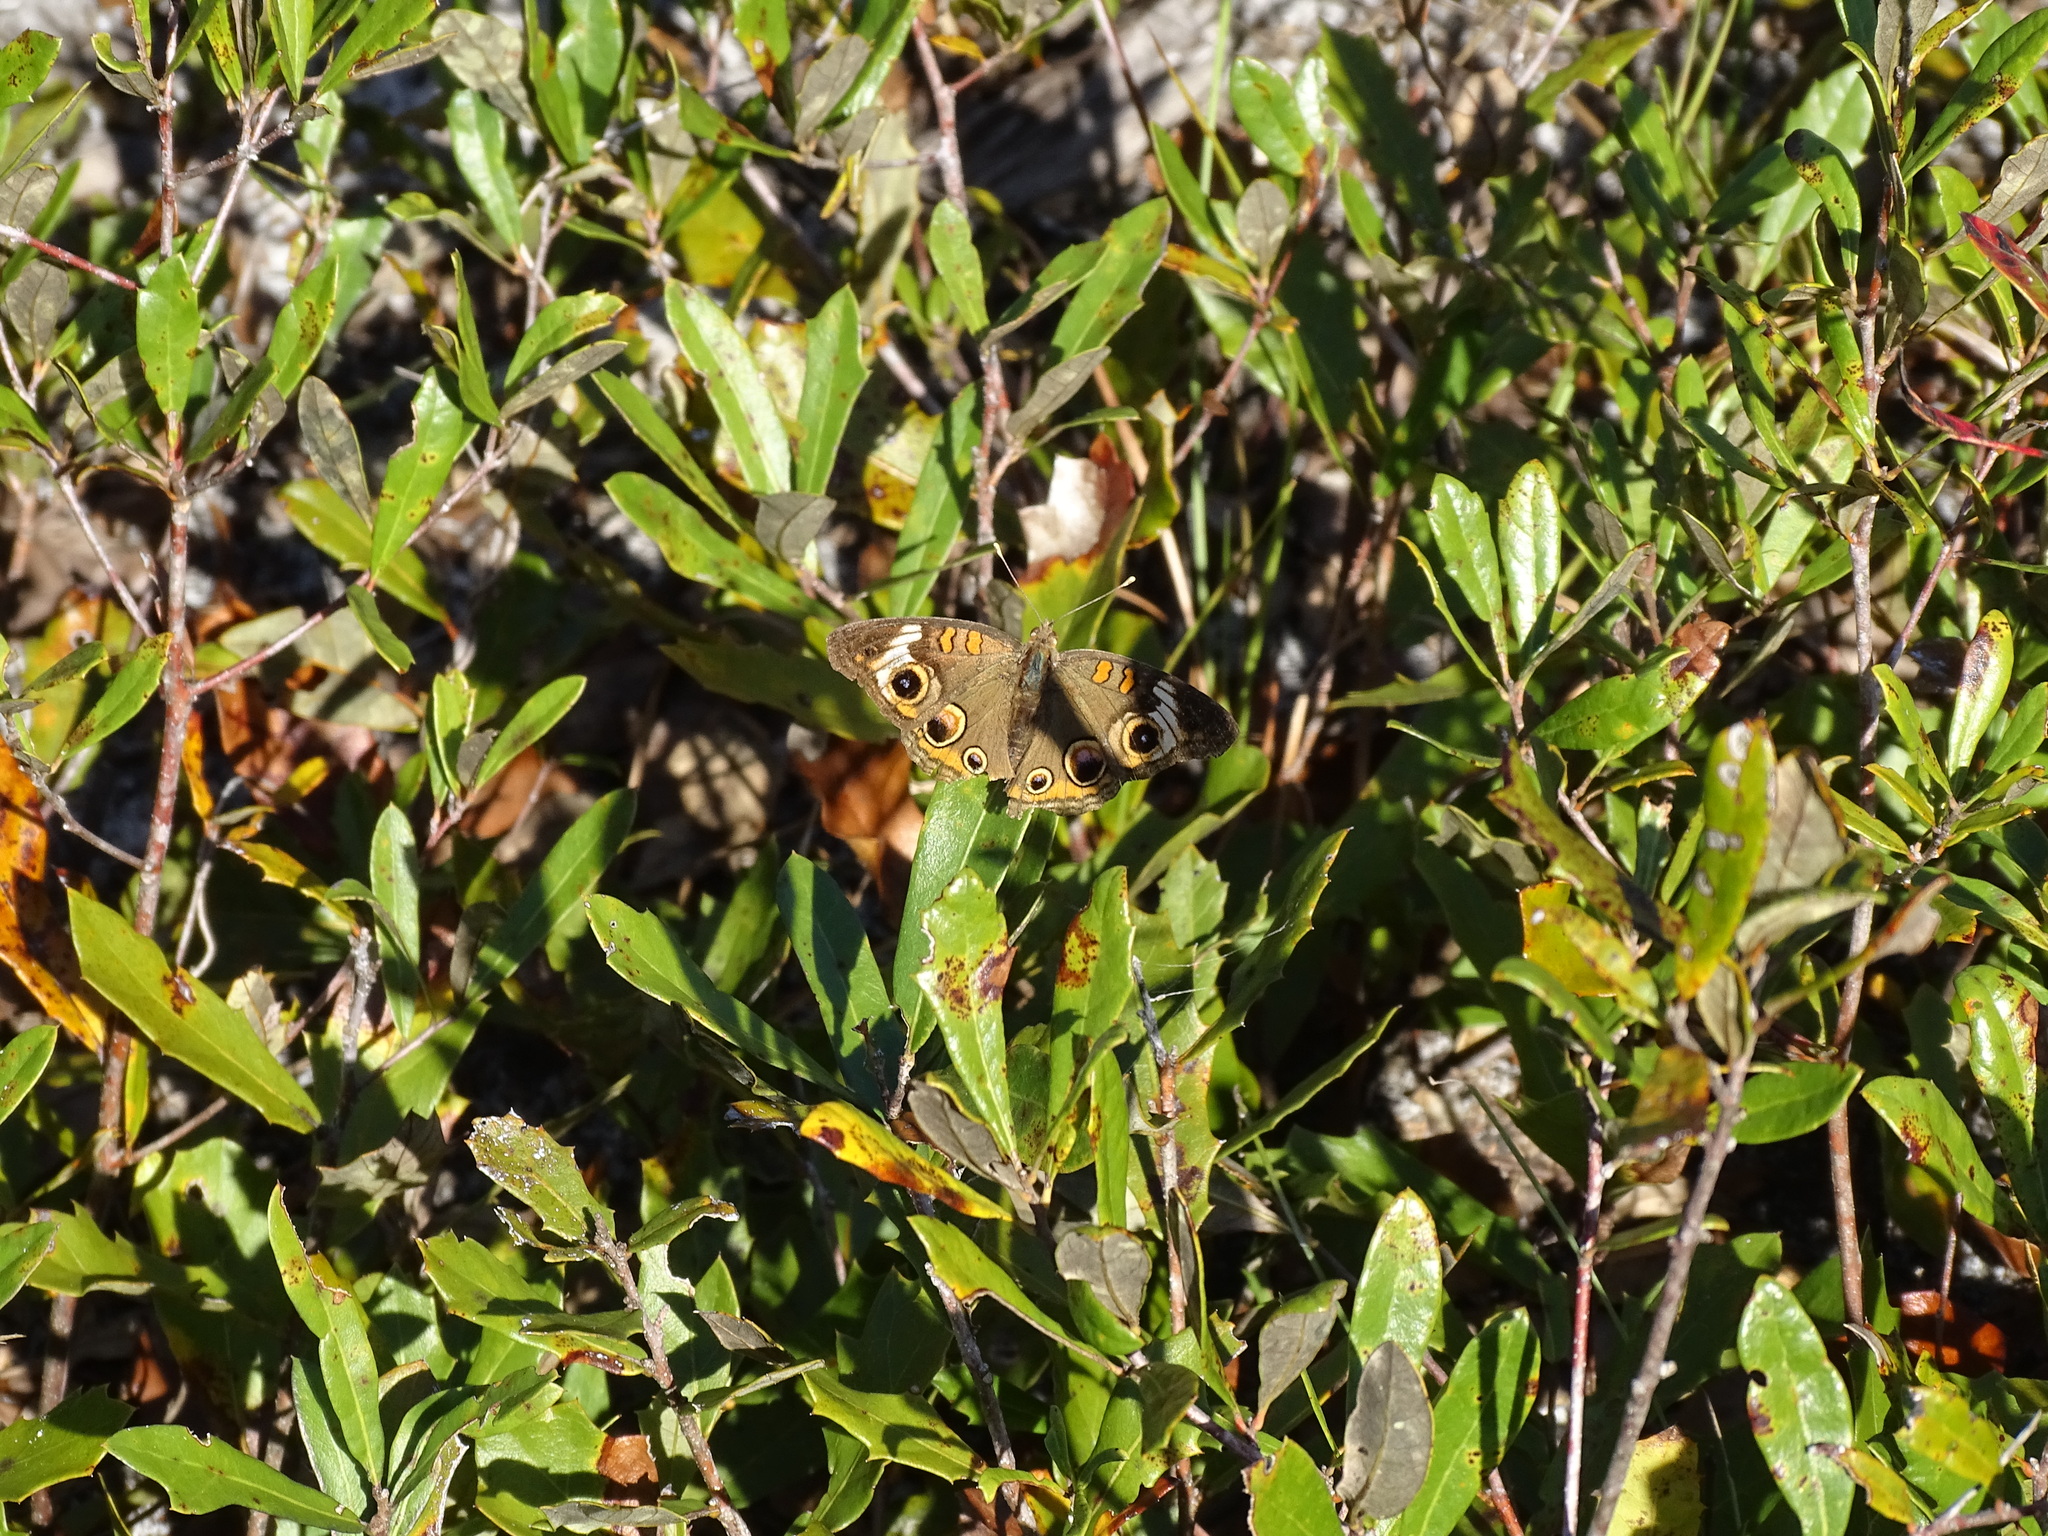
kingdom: Animalia
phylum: Arthropoda
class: Insecta
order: Lepidoptera
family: Nymphalidae
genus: Junonia
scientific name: Junonia coenia
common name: Common buckeye
